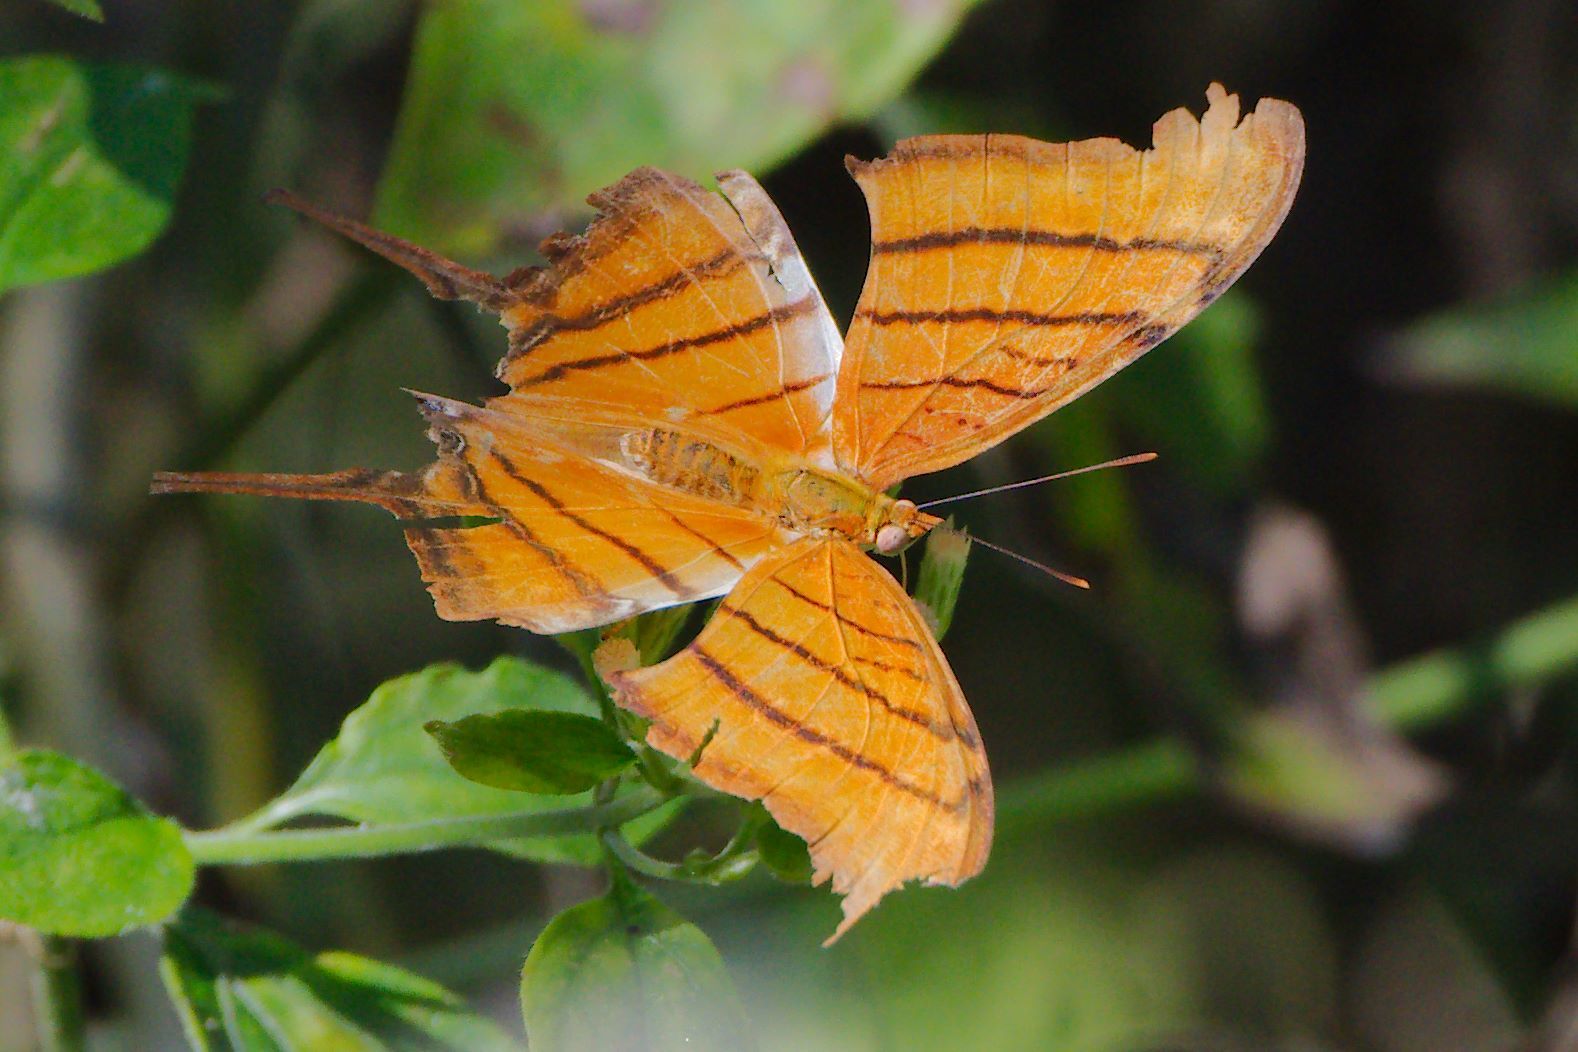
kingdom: Animalia
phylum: Arthropoda
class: Insecta
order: Lepidoptera
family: Nymphalidae
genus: Marpesia
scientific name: Marpesia petreus
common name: Red dagger wing
